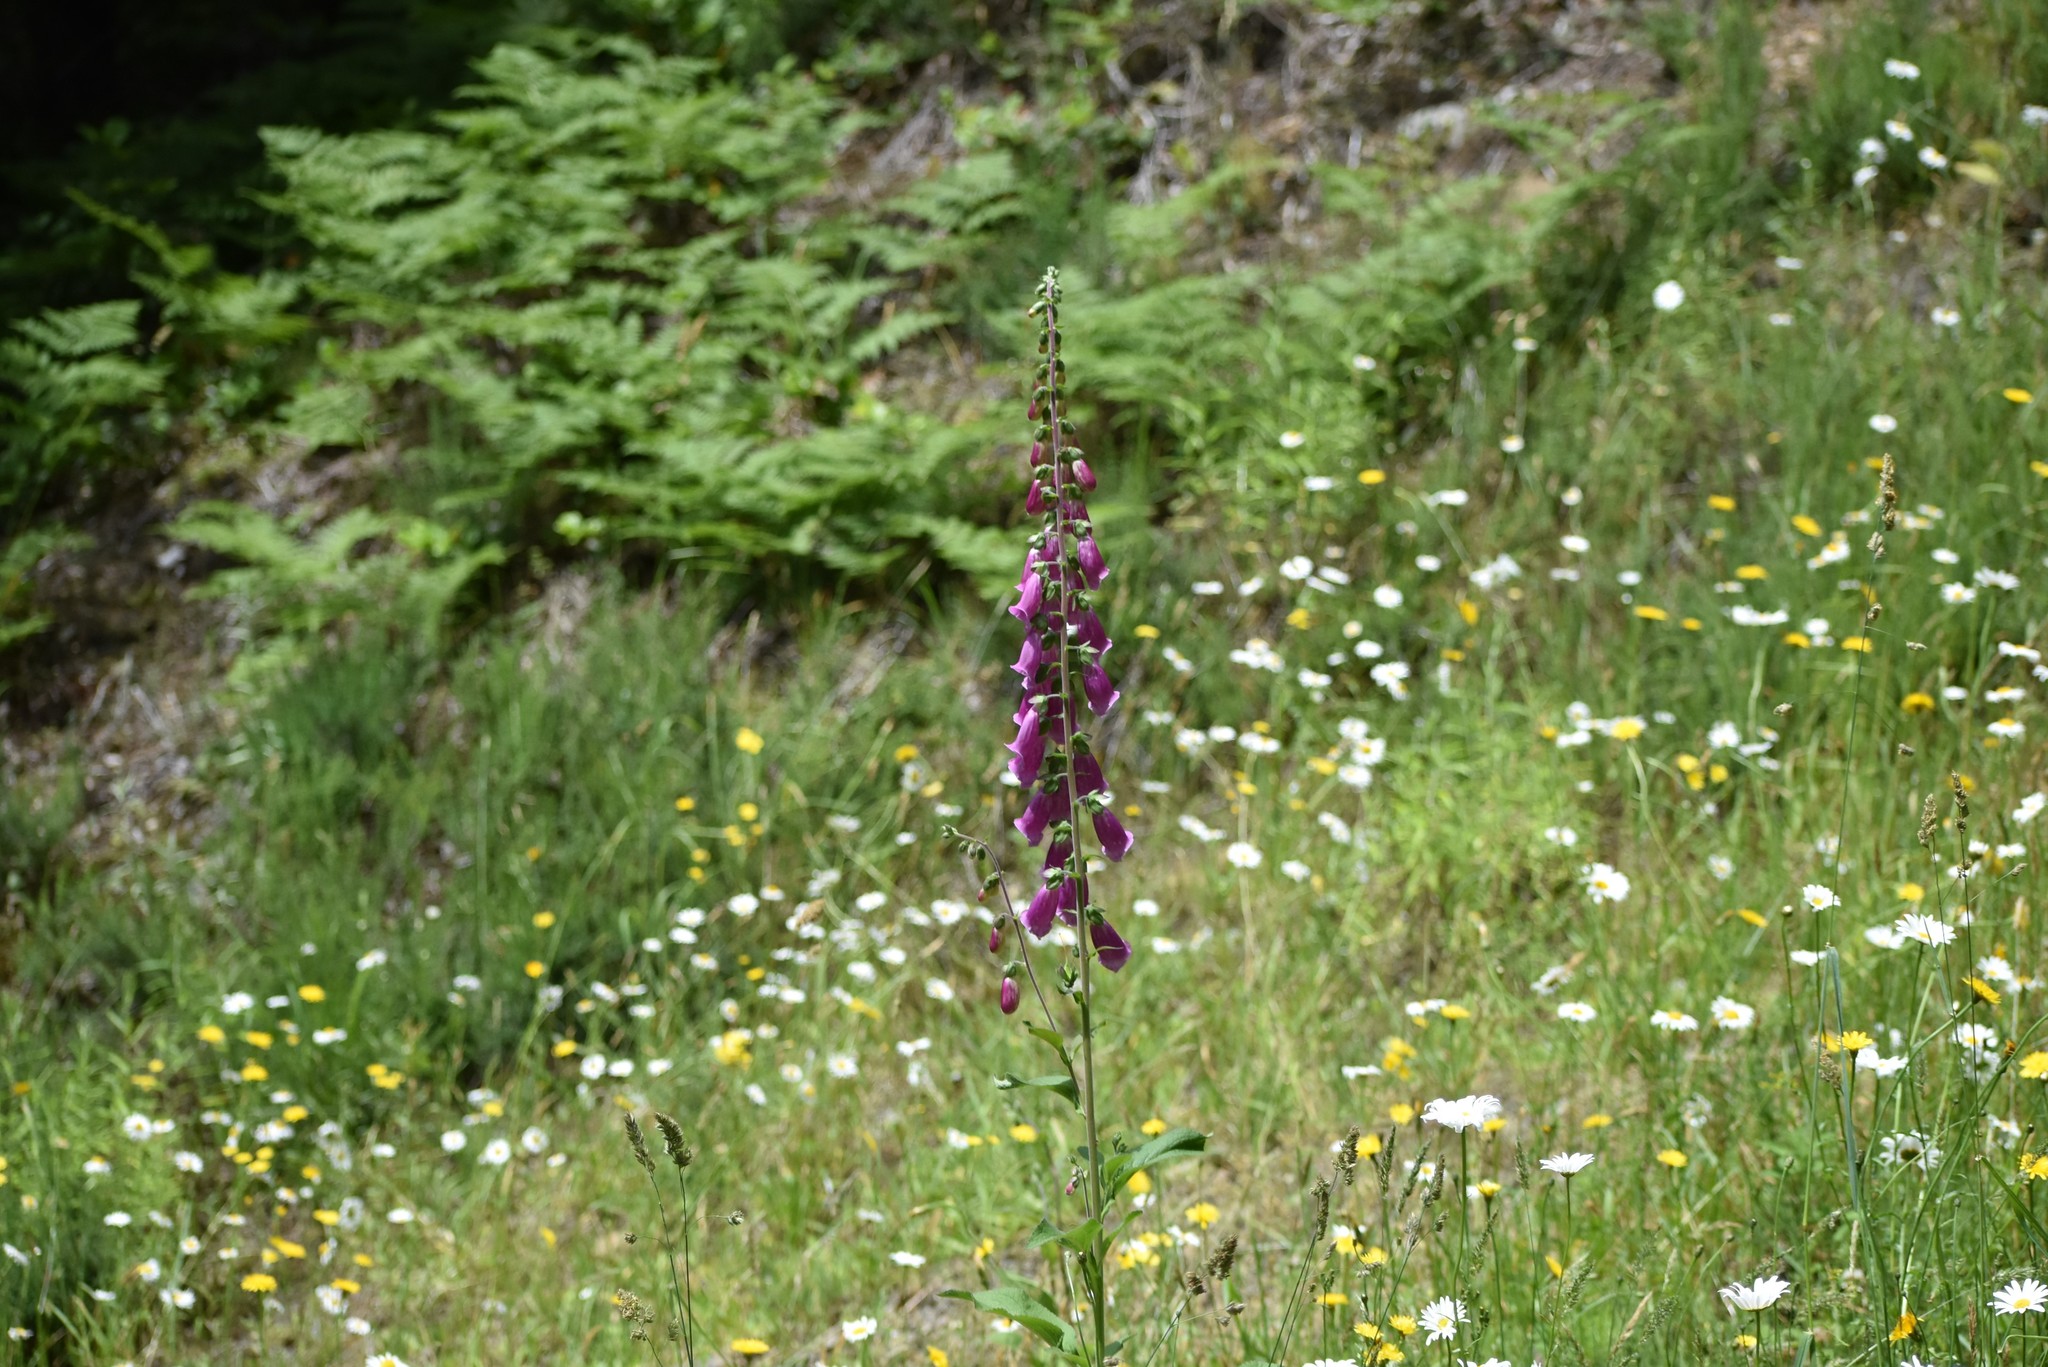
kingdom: Plantae
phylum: Tracheophyta
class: Magnoliopsida
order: Lamiales
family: Plantaginaceae
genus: Digitalis
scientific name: Digitalis purpurea
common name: Foxglove
